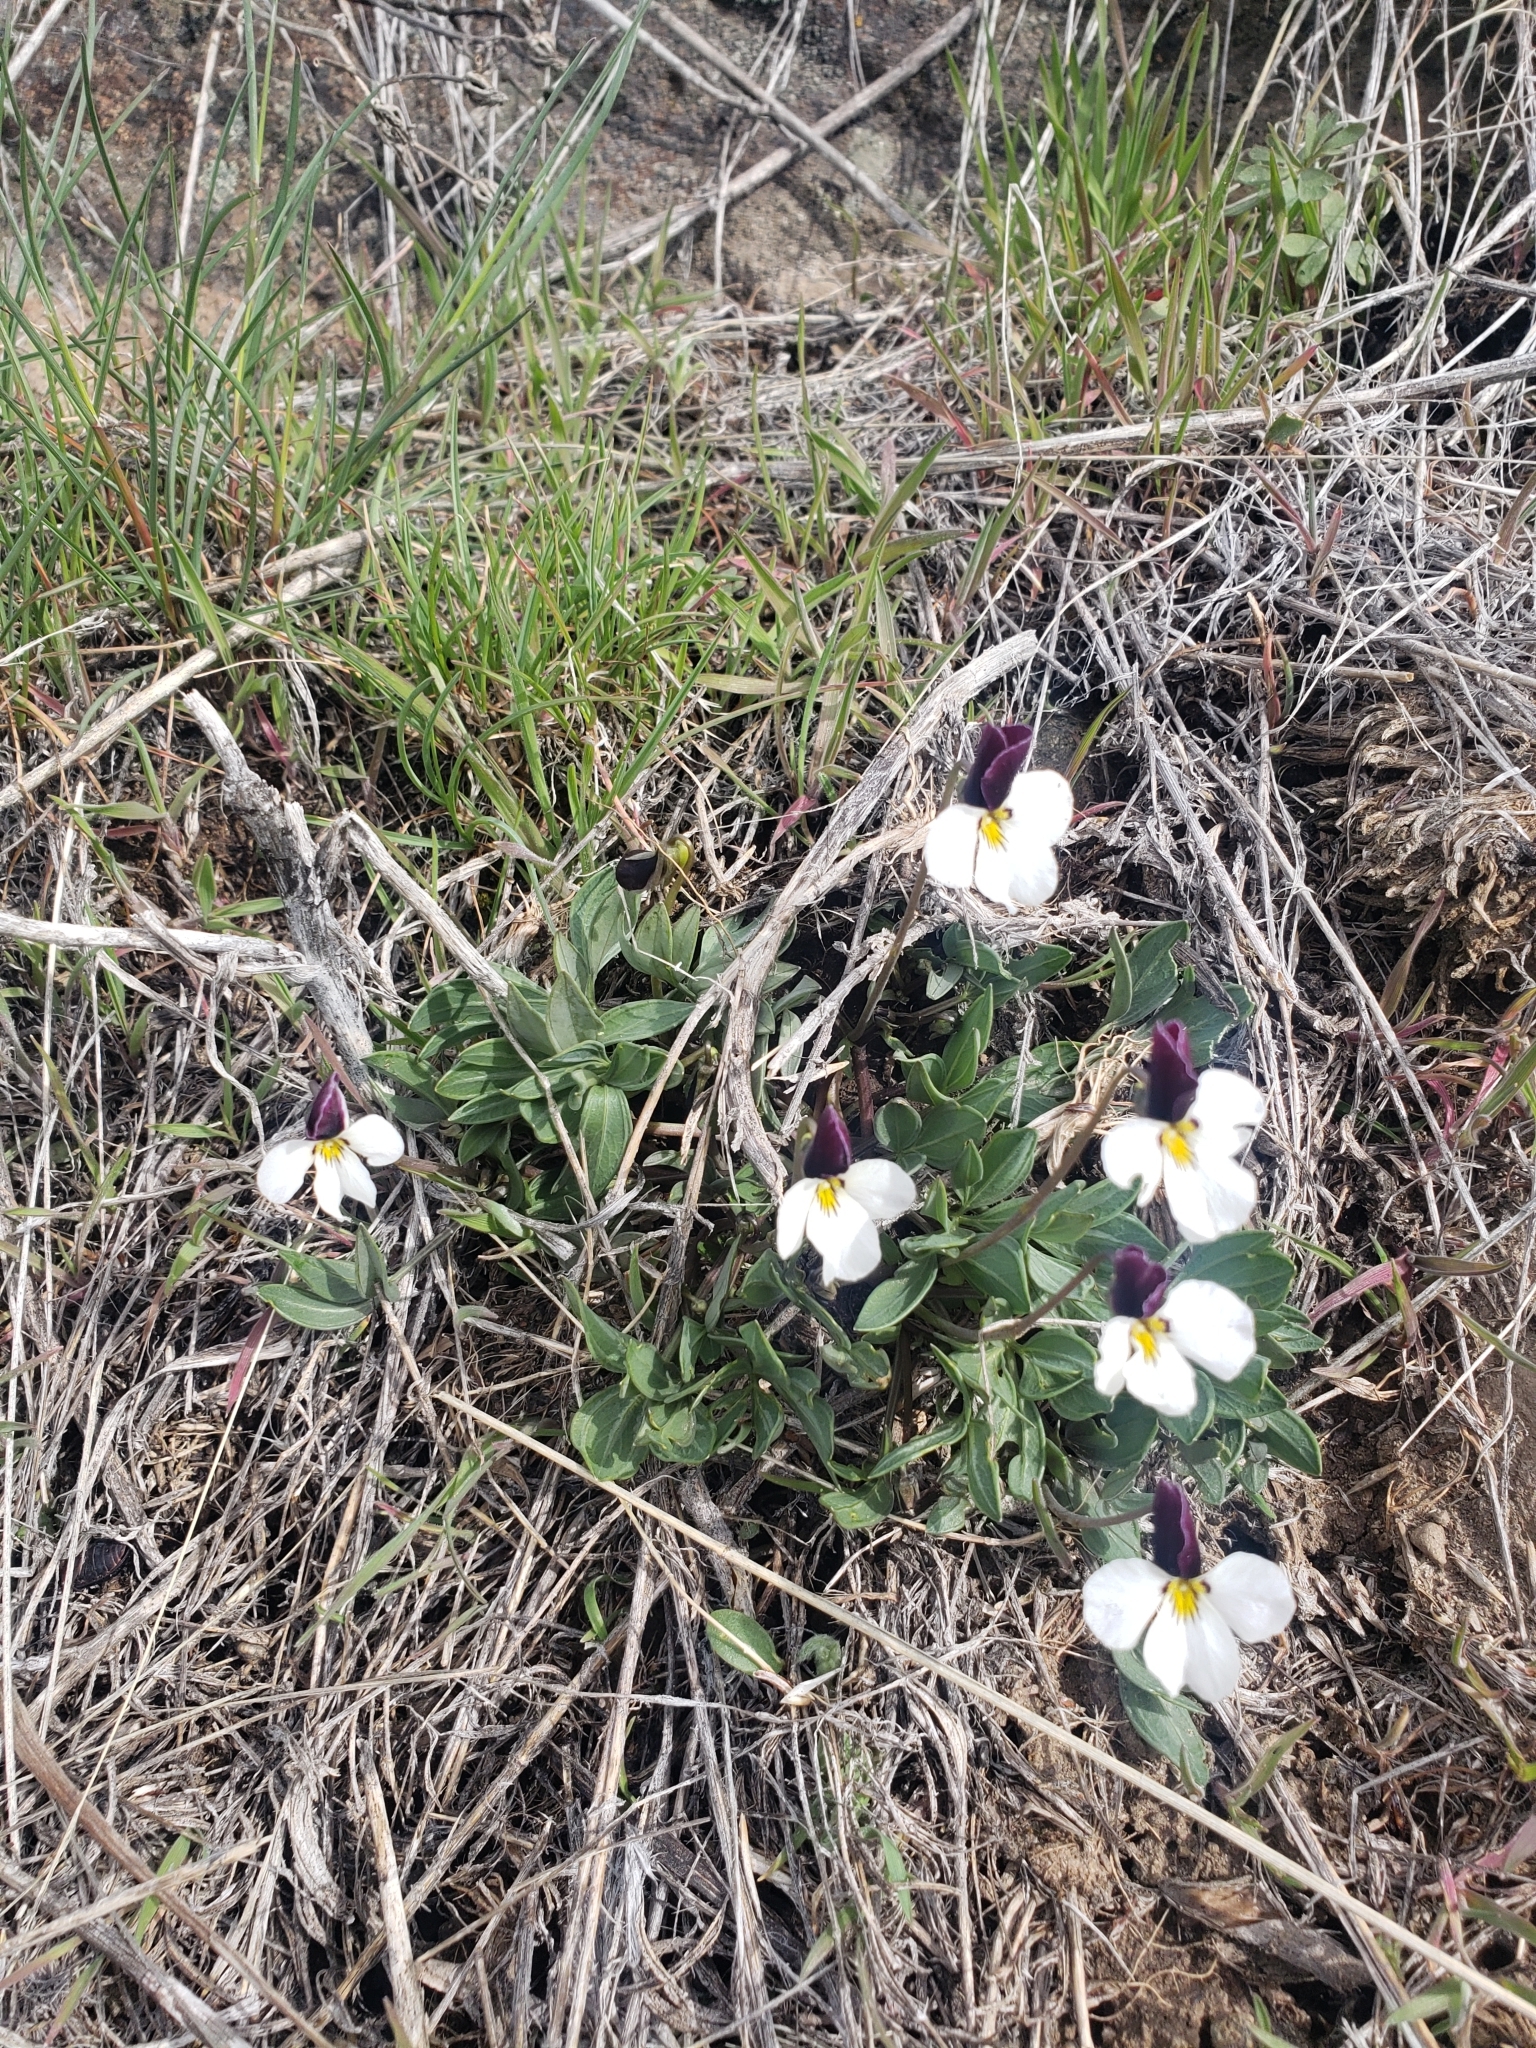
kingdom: Plantae
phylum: Tracheophyta
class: Magnoliopsida
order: Malpighiales
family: Violaceae
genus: Viola
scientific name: Viola trinervata
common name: Sagebrush violet
